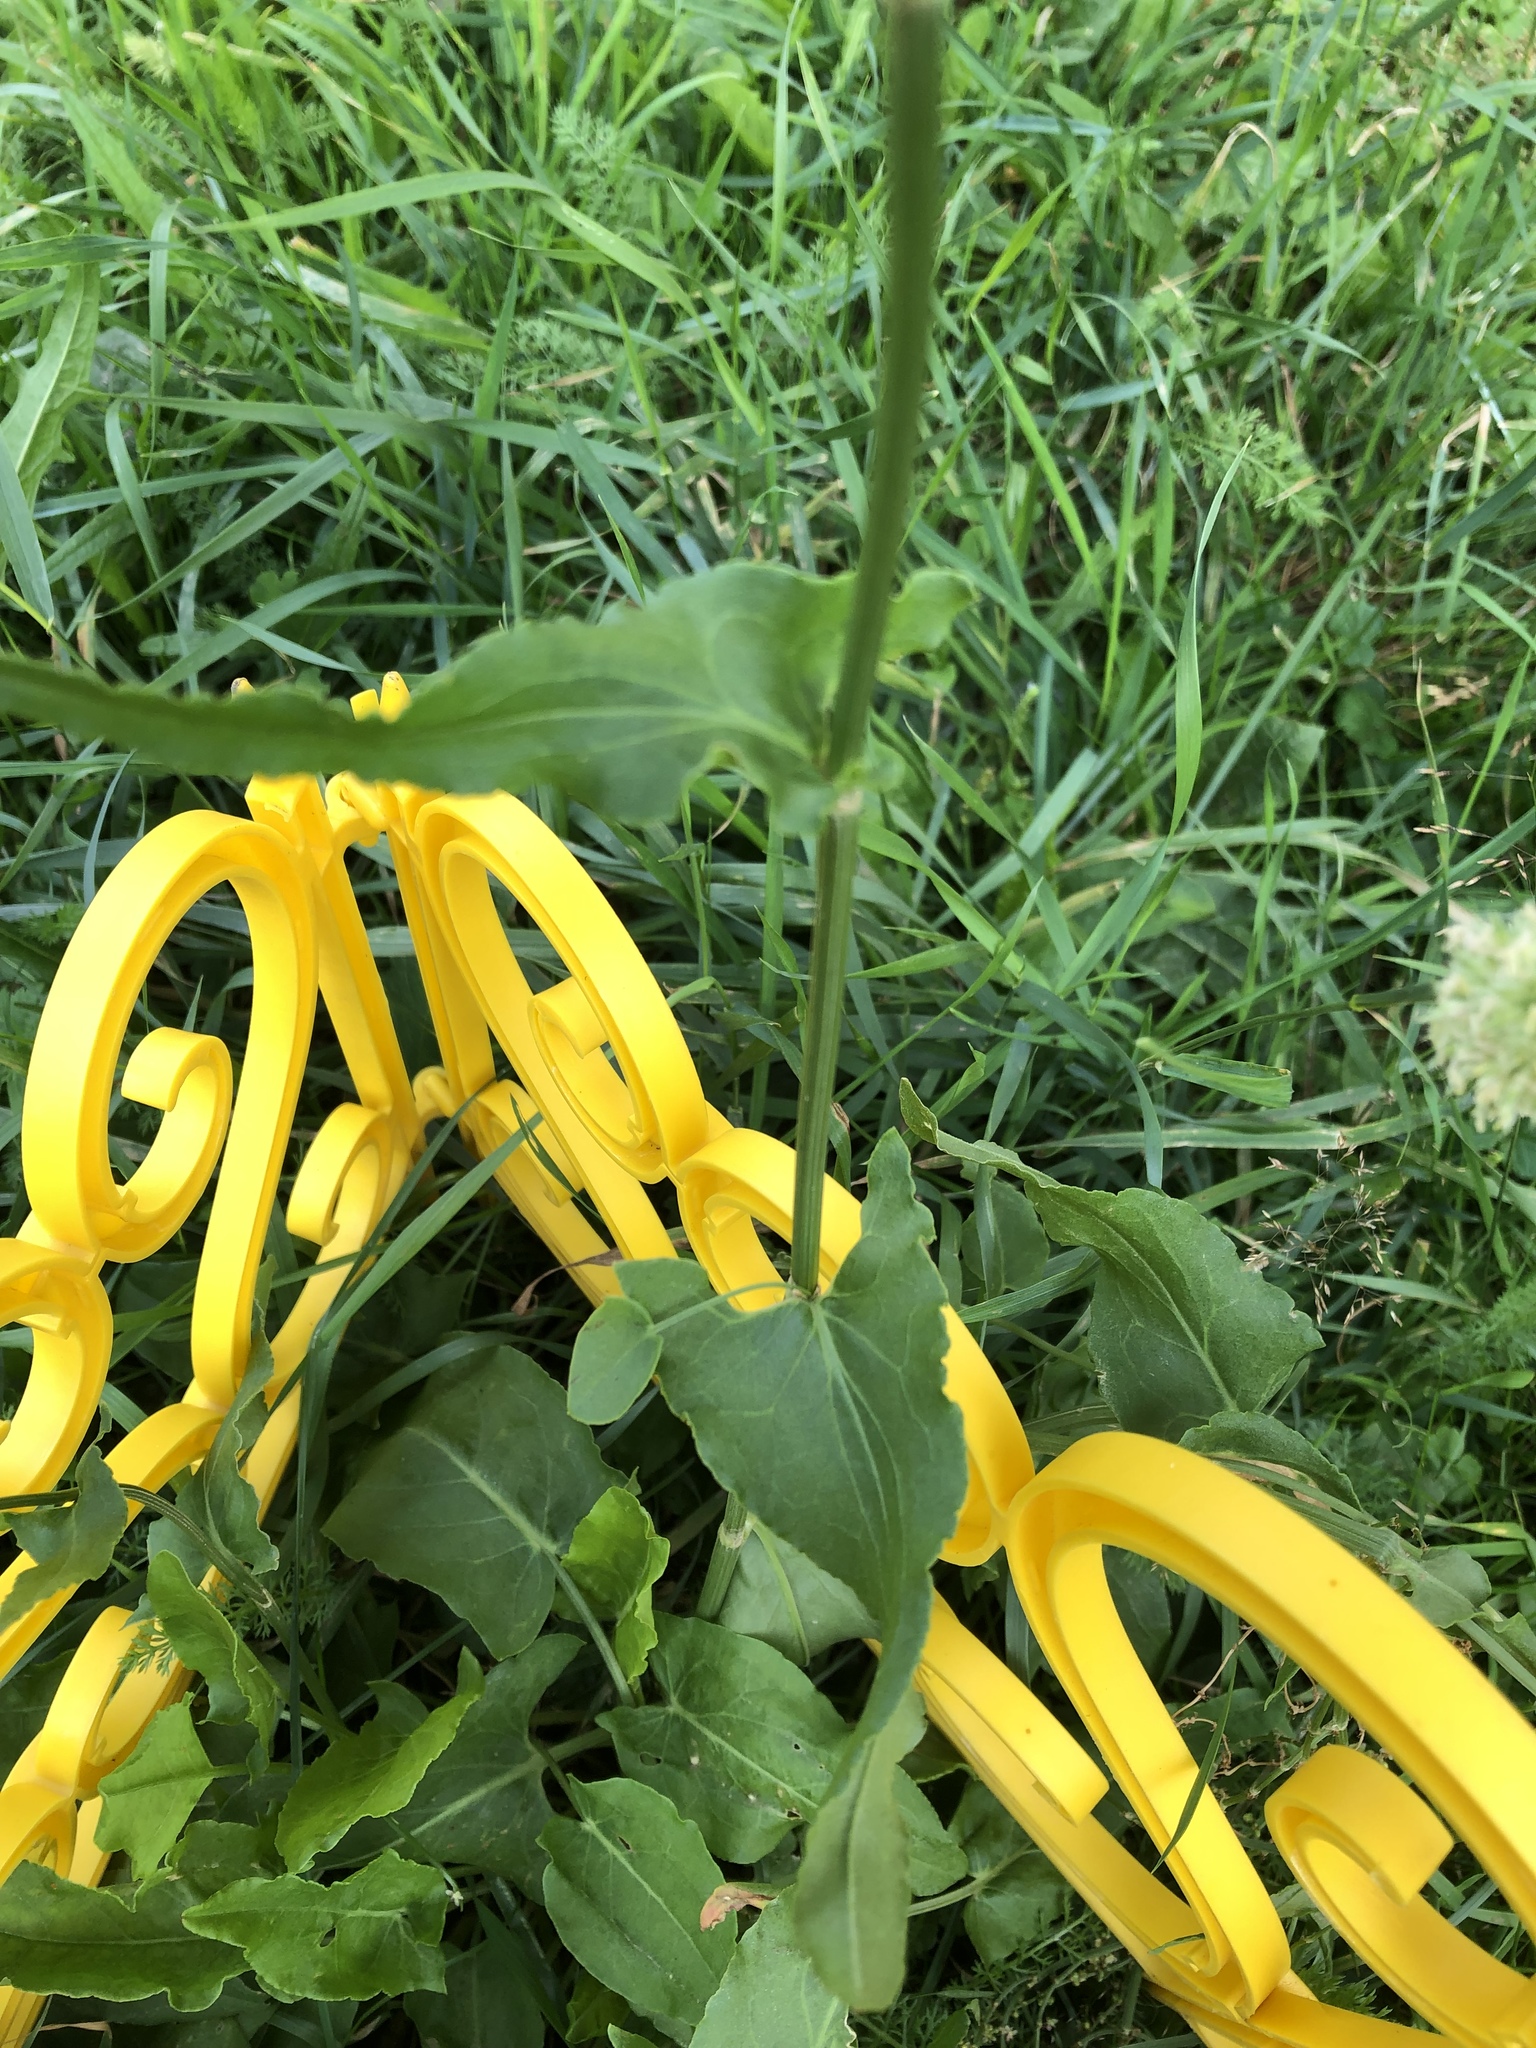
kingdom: Plantae
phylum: Tracheophyta
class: Magnoliopsida
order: Caryophyllales
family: Polygonaceae
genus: Rumex
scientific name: Rumex acetosa
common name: Garden sorrel
